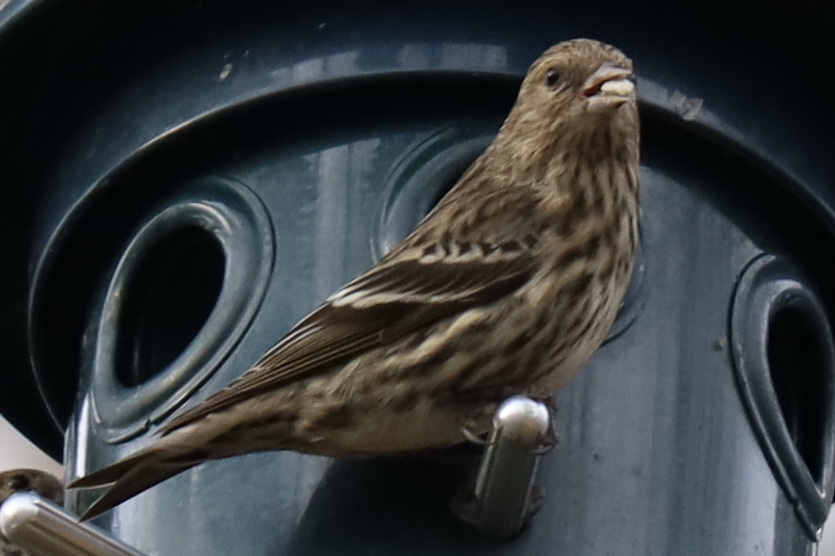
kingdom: Animalia
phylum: Chordata
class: Aves
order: Passeriformes
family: Fringillidae
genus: Spinus
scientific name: Spinus pinus
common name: Pine siskin
